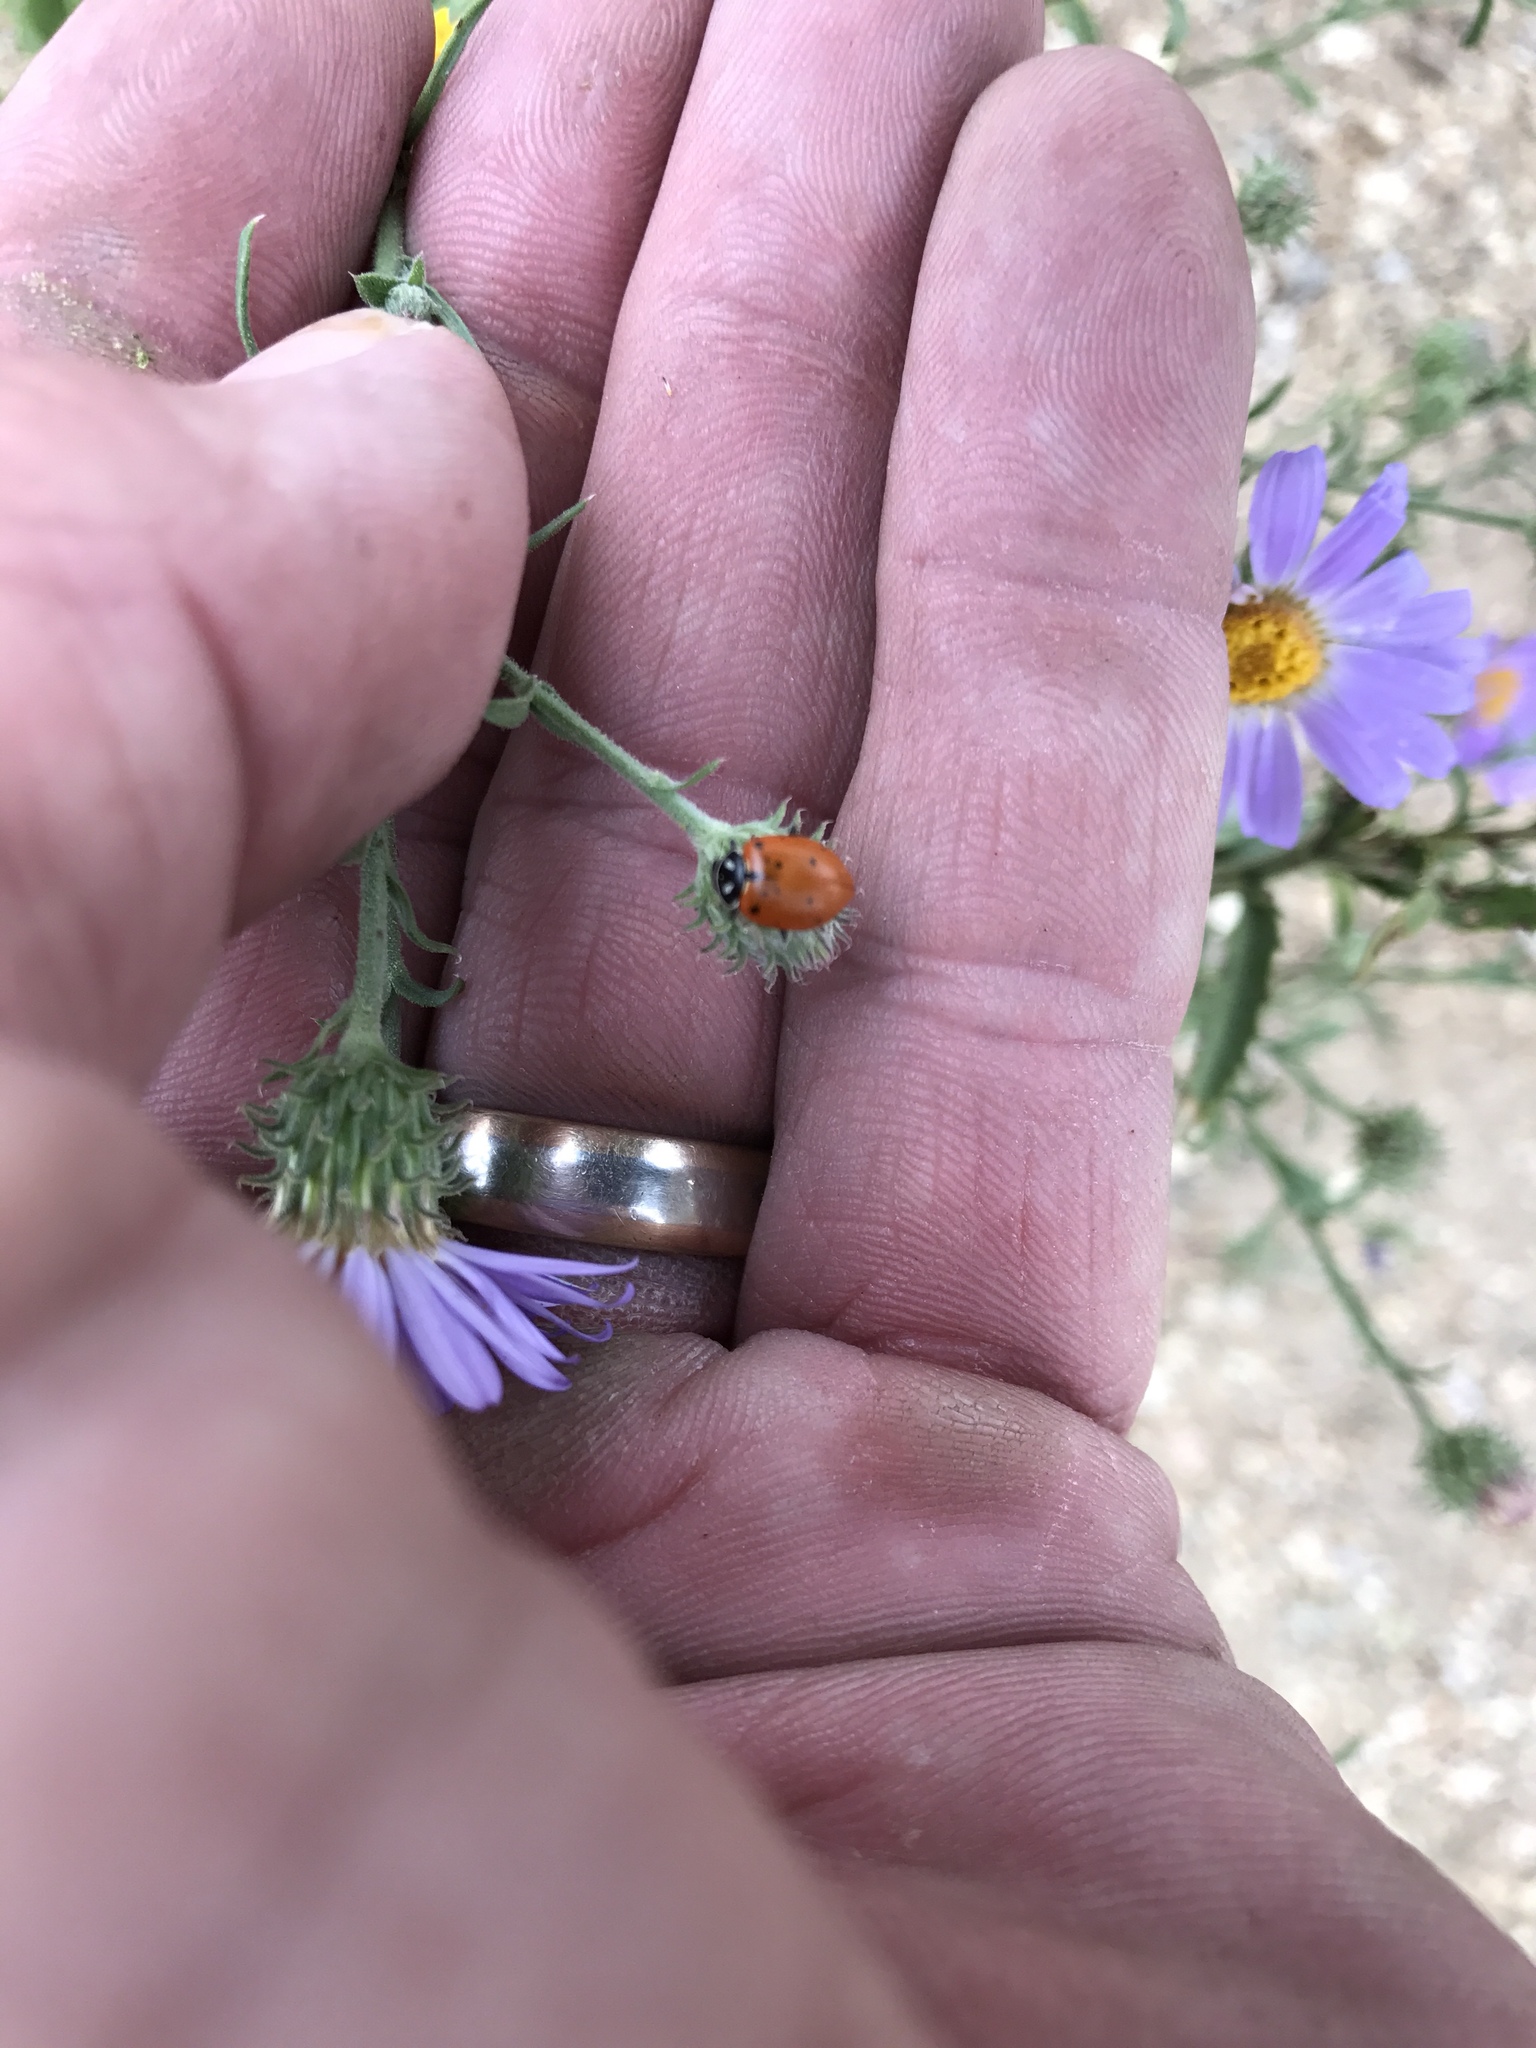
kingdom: Animalia
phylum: Arthropoda
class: Insecta
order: Coleoptera
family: Coccinellidae
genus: Hippodamia
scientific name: Hippodamia convergens
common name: Convergent lady beetle
